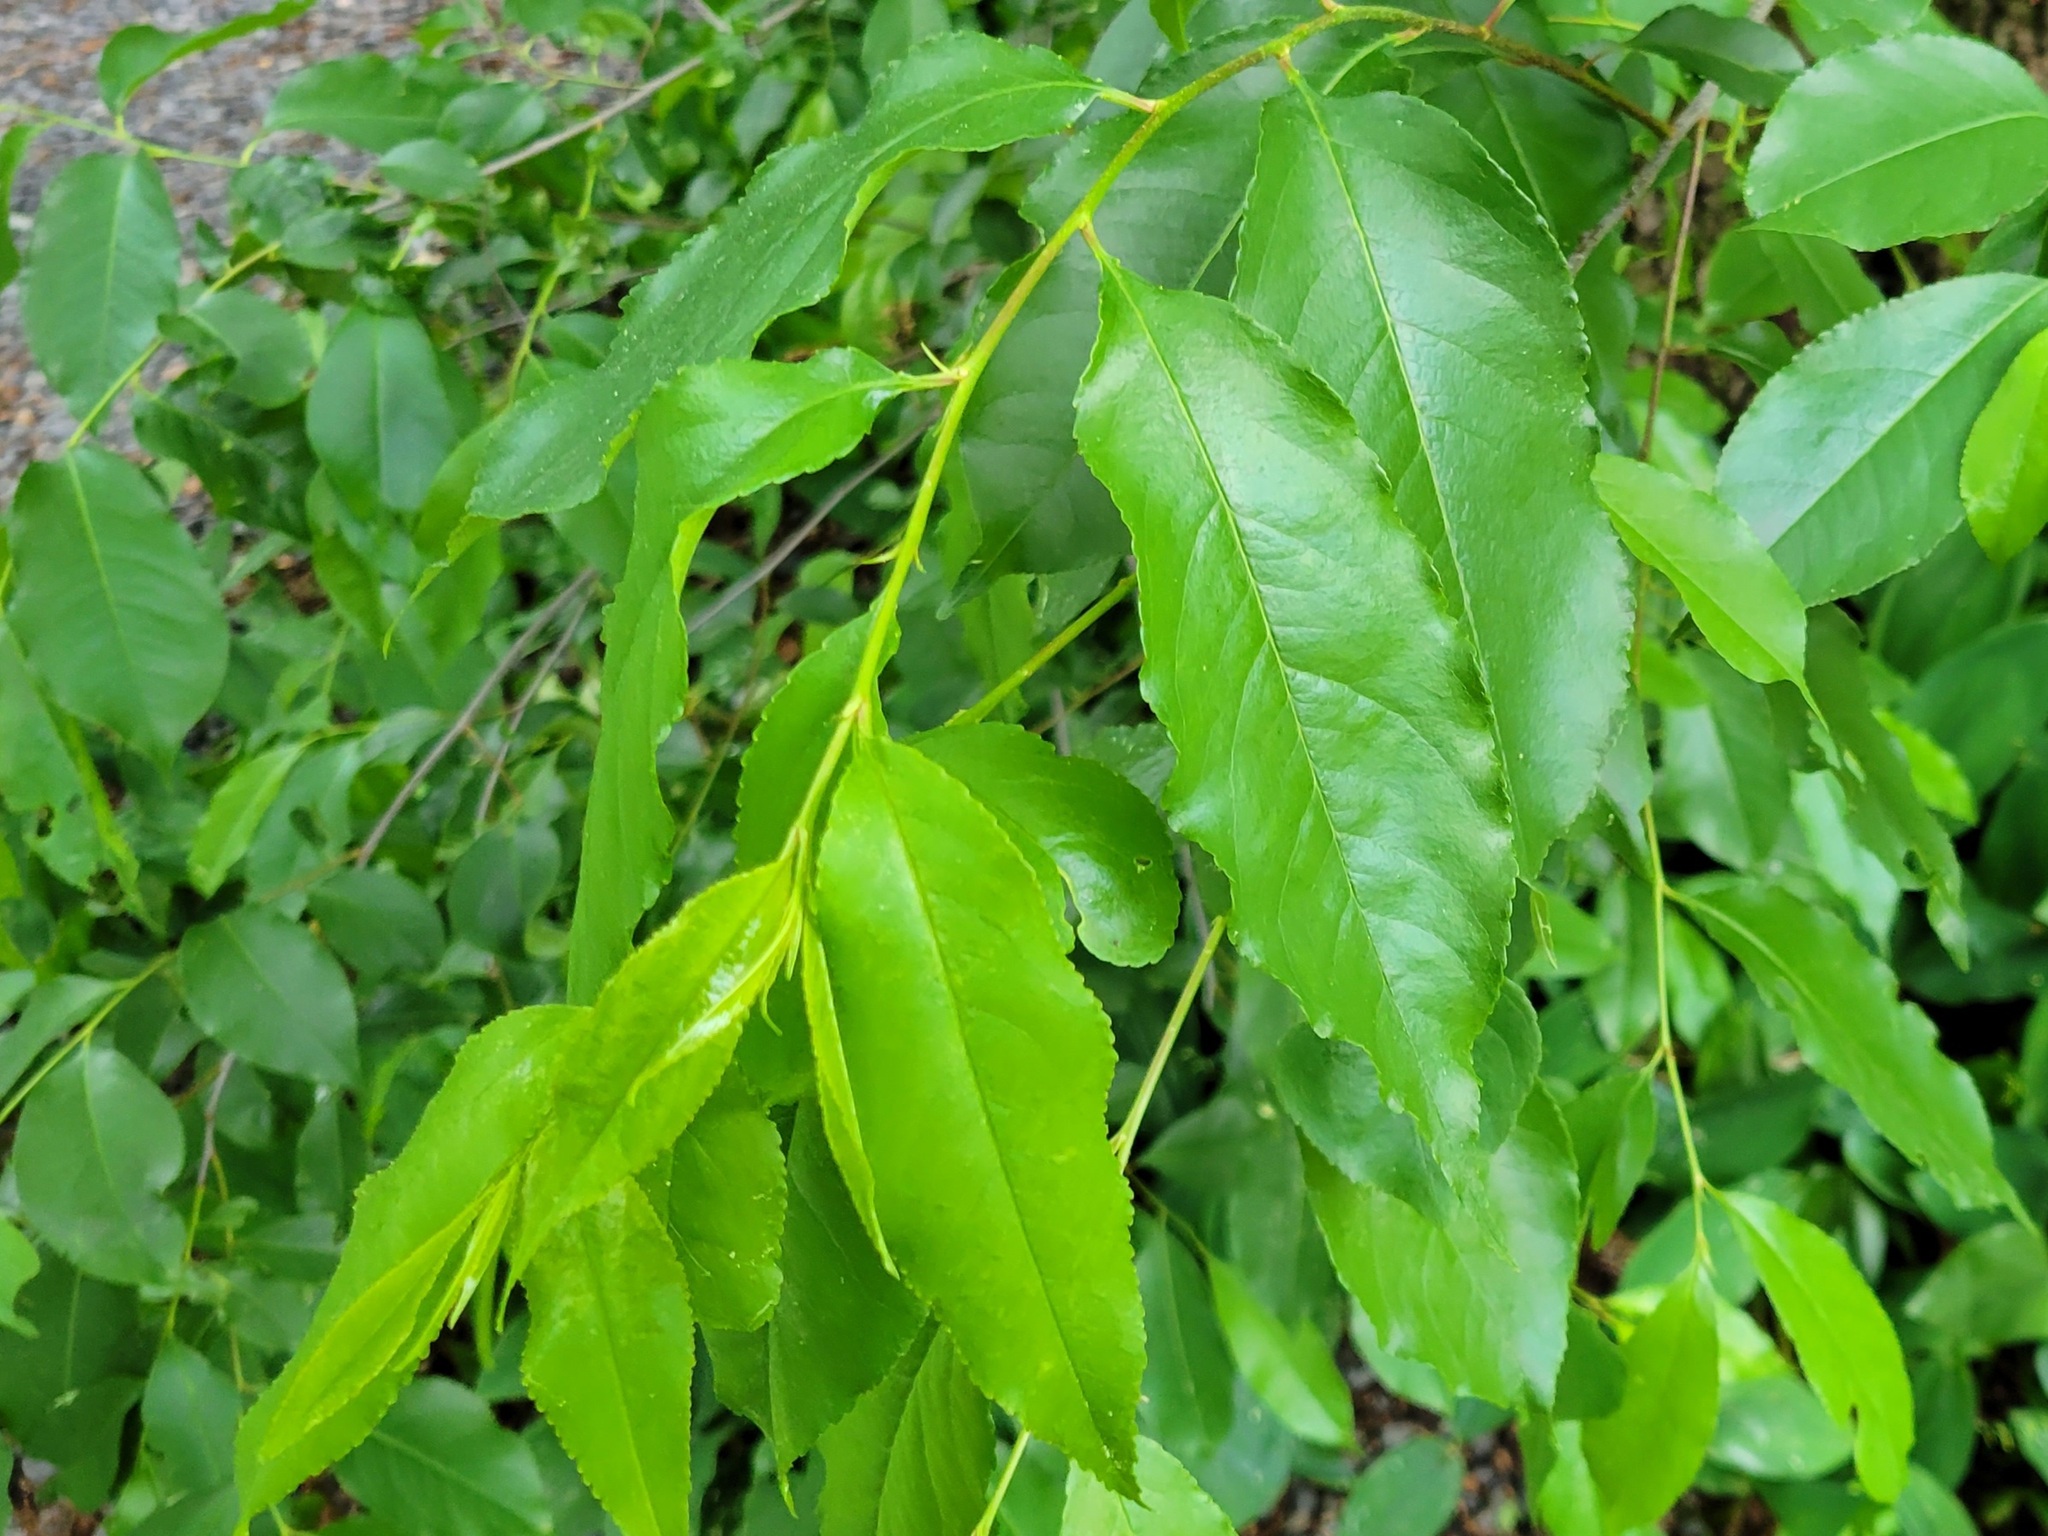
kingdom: Plantae
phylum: Tracheophyta
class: Magnoliopsida
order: Rosales
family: Rosaceae
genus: Prunus
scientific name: Prunus serotina
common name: Black cherry
